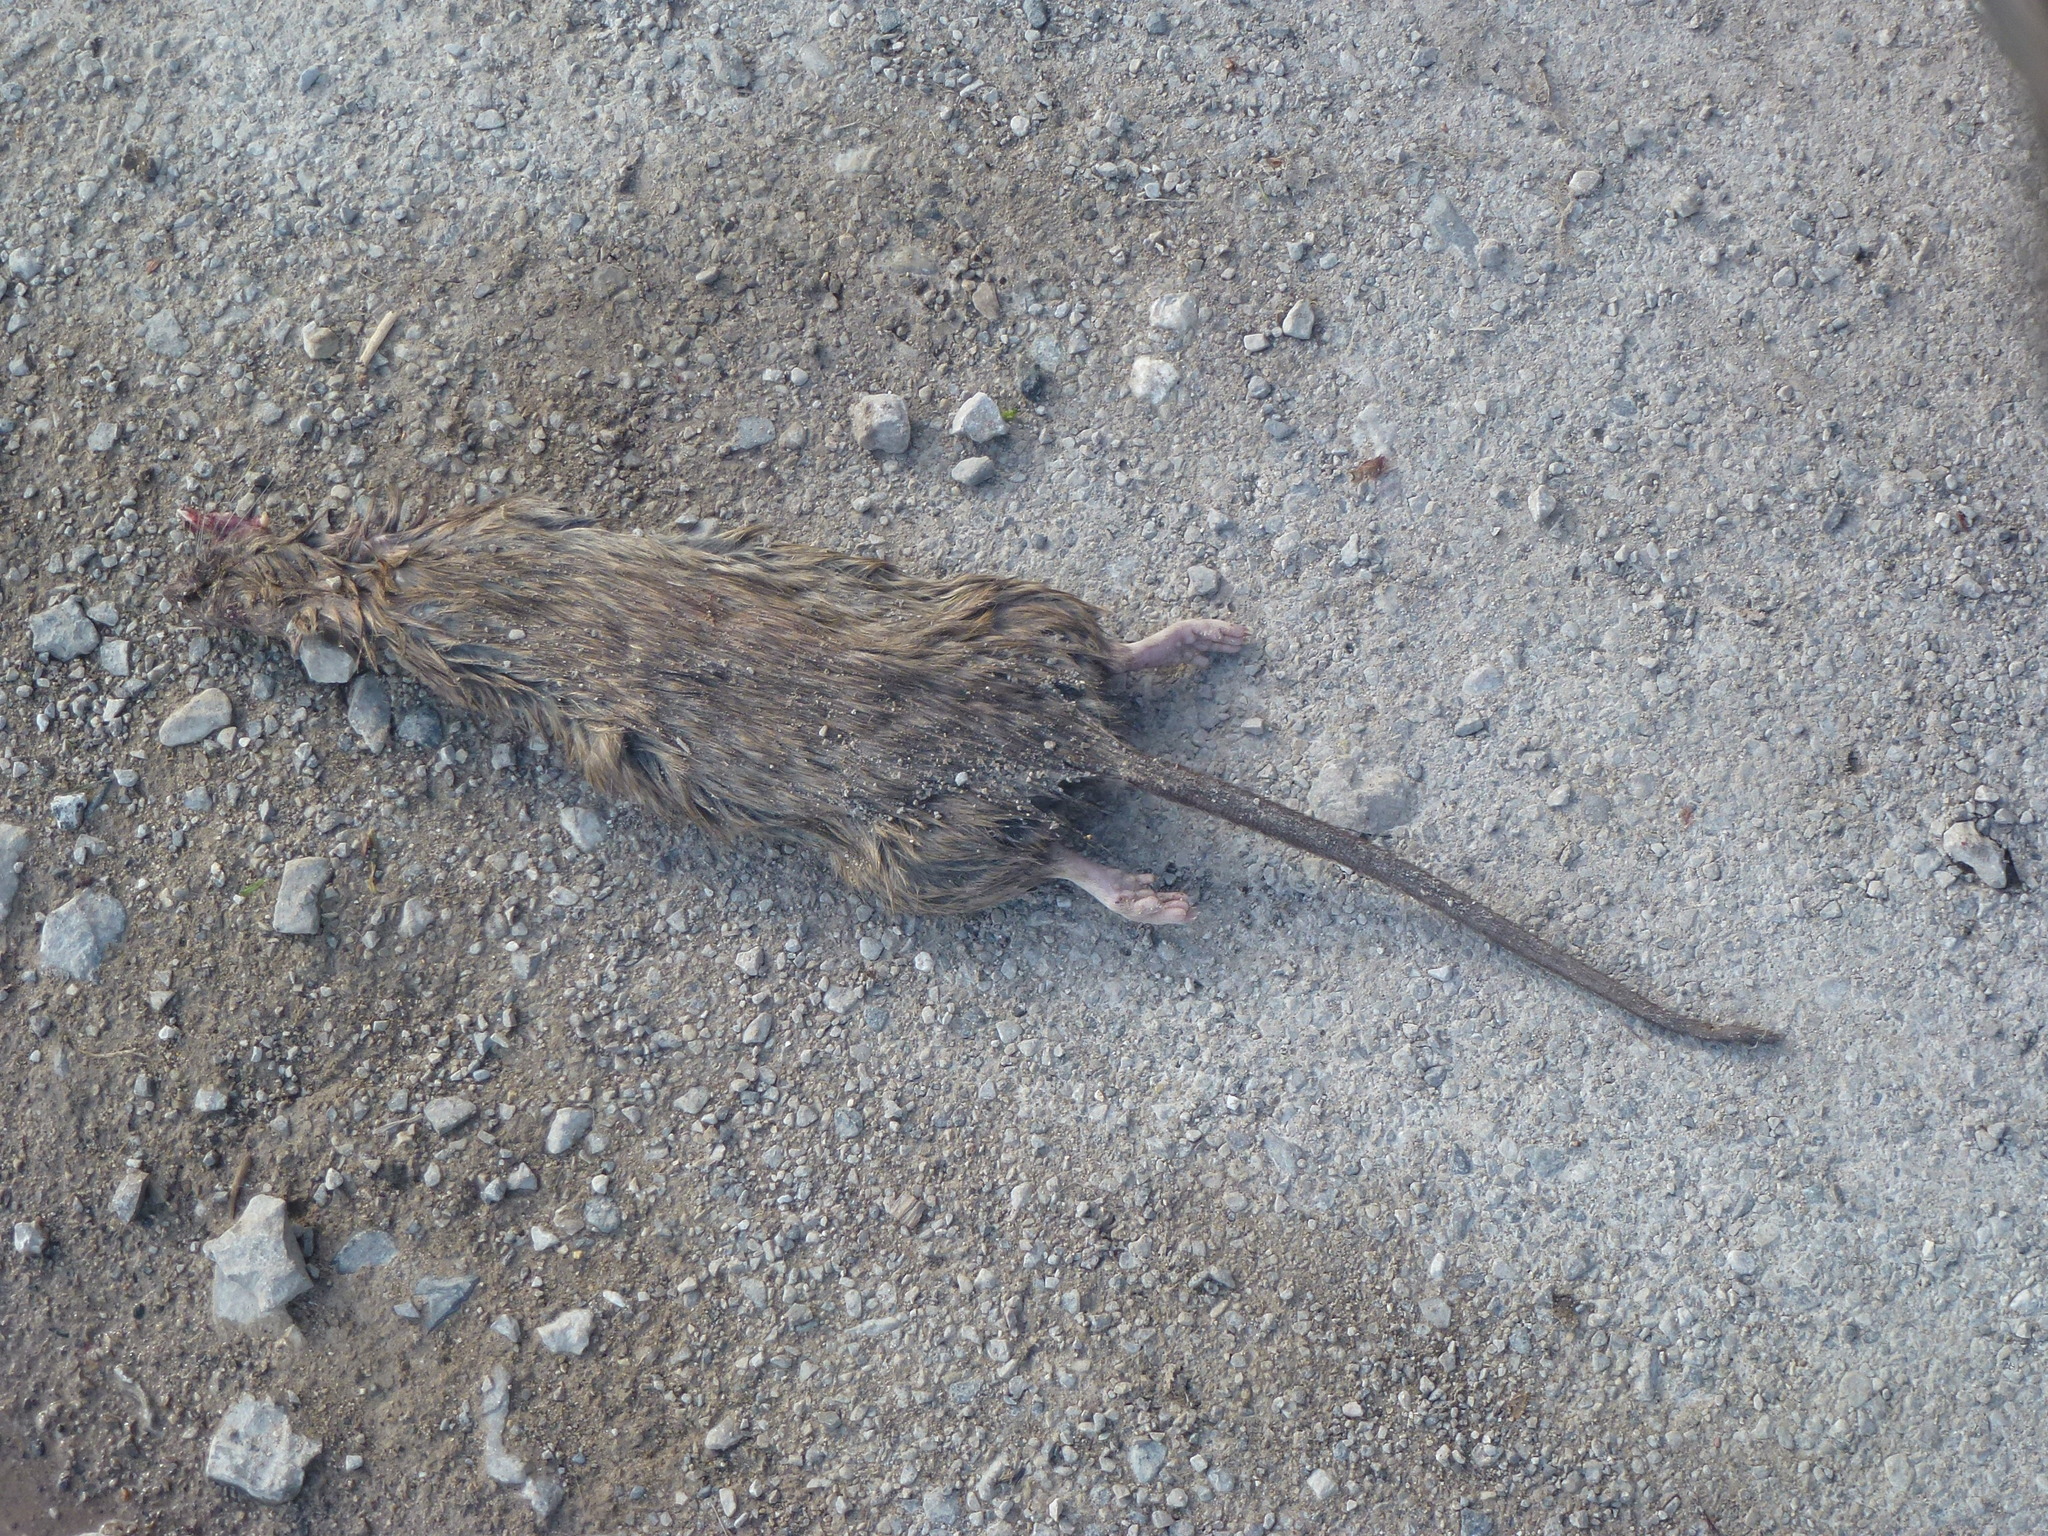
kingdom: Animalia
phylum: Chordata
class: Mammalia
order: Rodentia
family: Muridae
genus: Rattus
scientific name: Rattus norvegicus
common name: Brown rat
